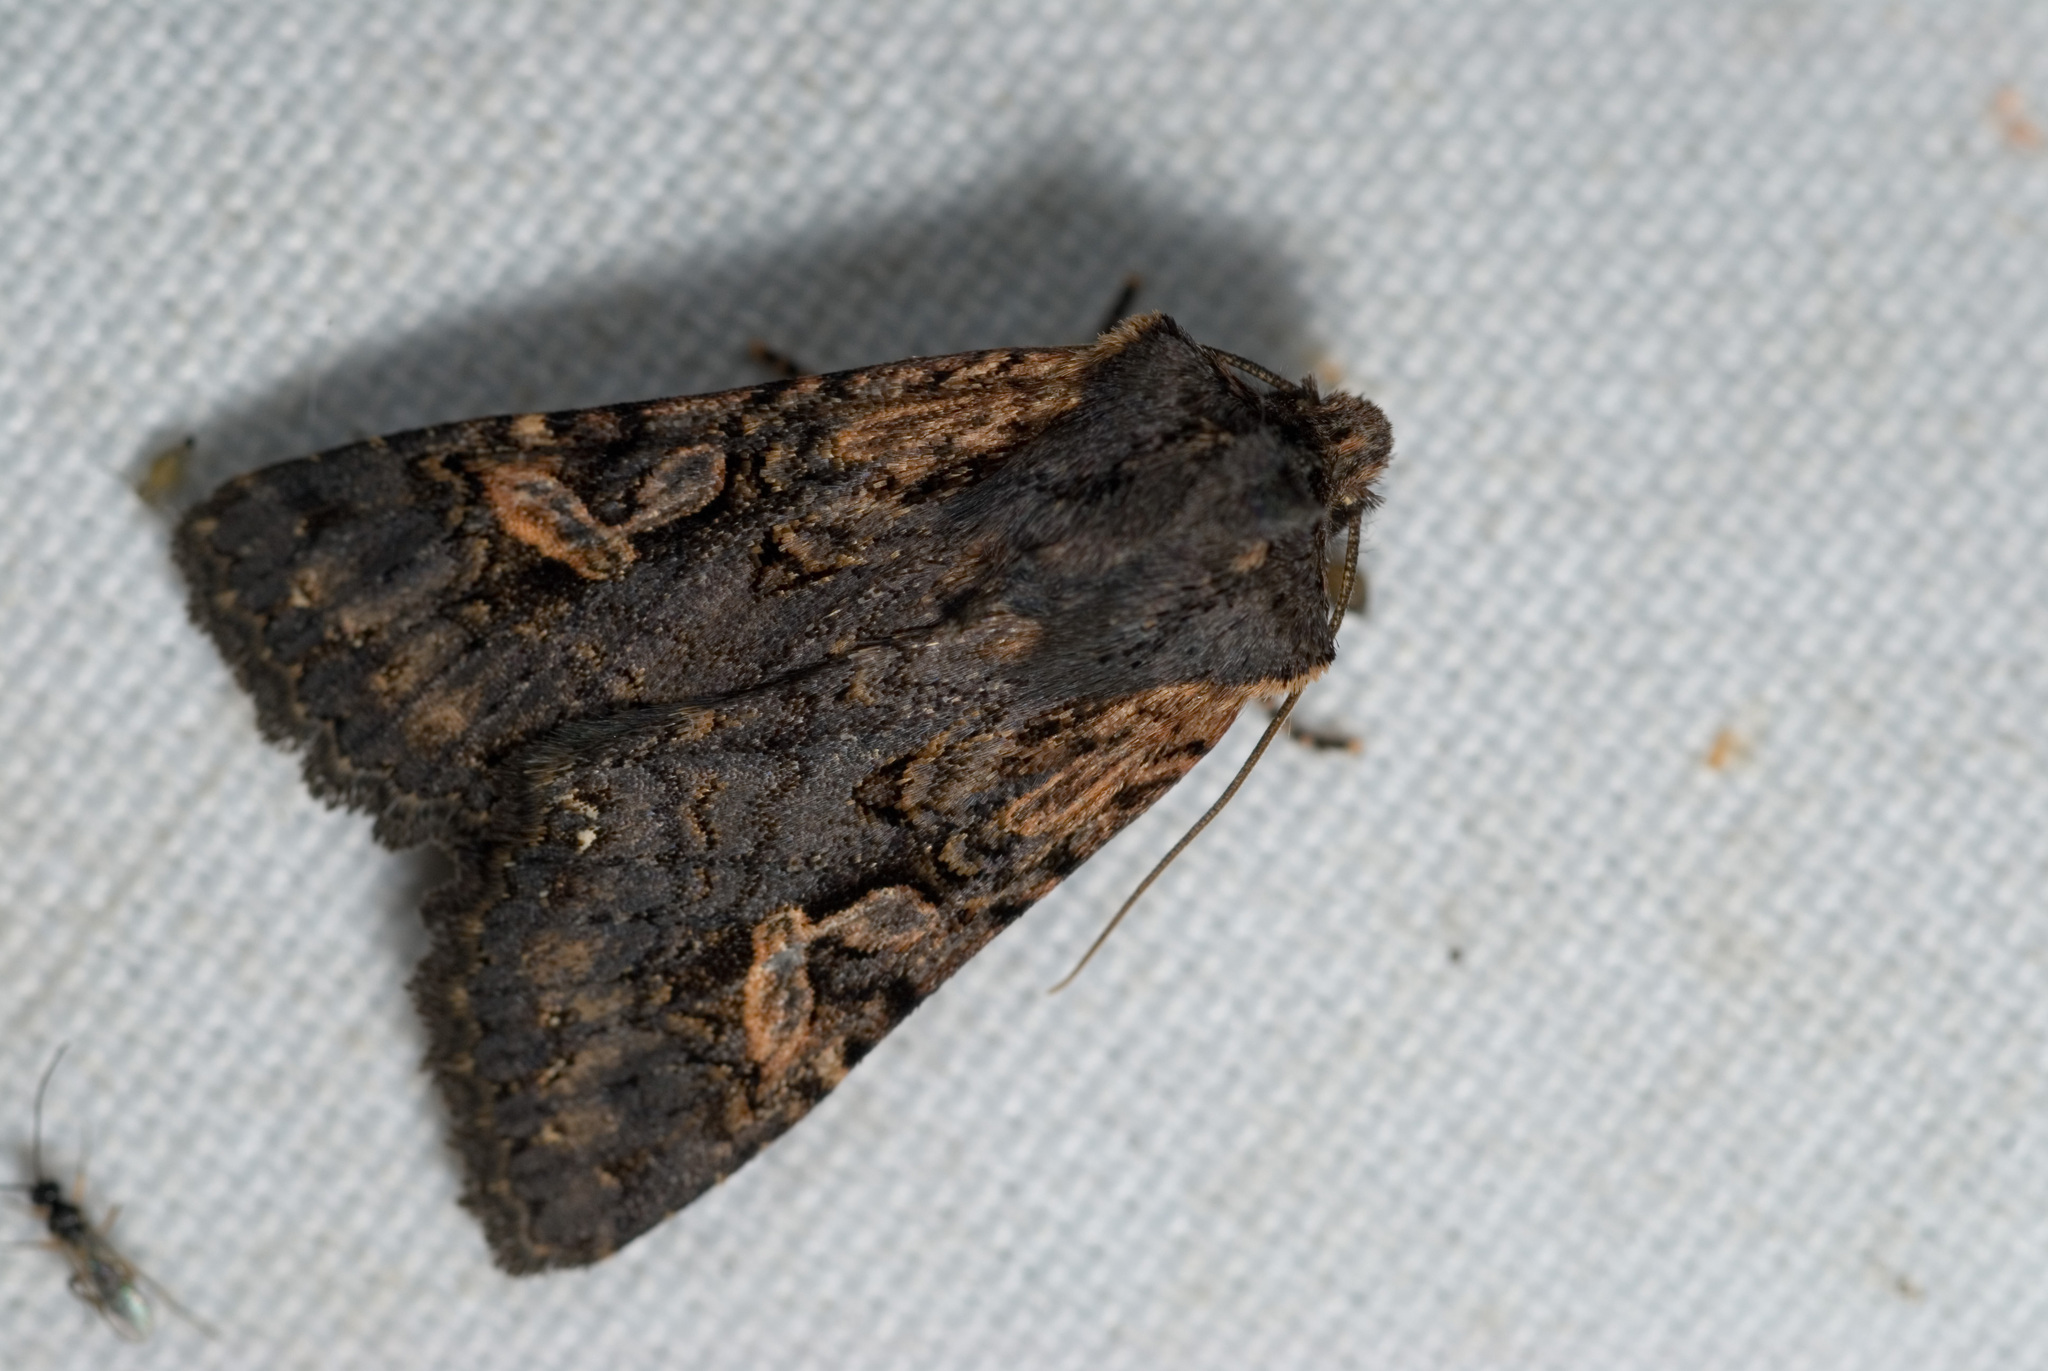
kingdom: Animalia
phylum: Arthropoda
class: Insecta
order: Lepidoptera
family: Noctuidae
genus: Hemiglaea
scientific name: Hemiglaea horiei
